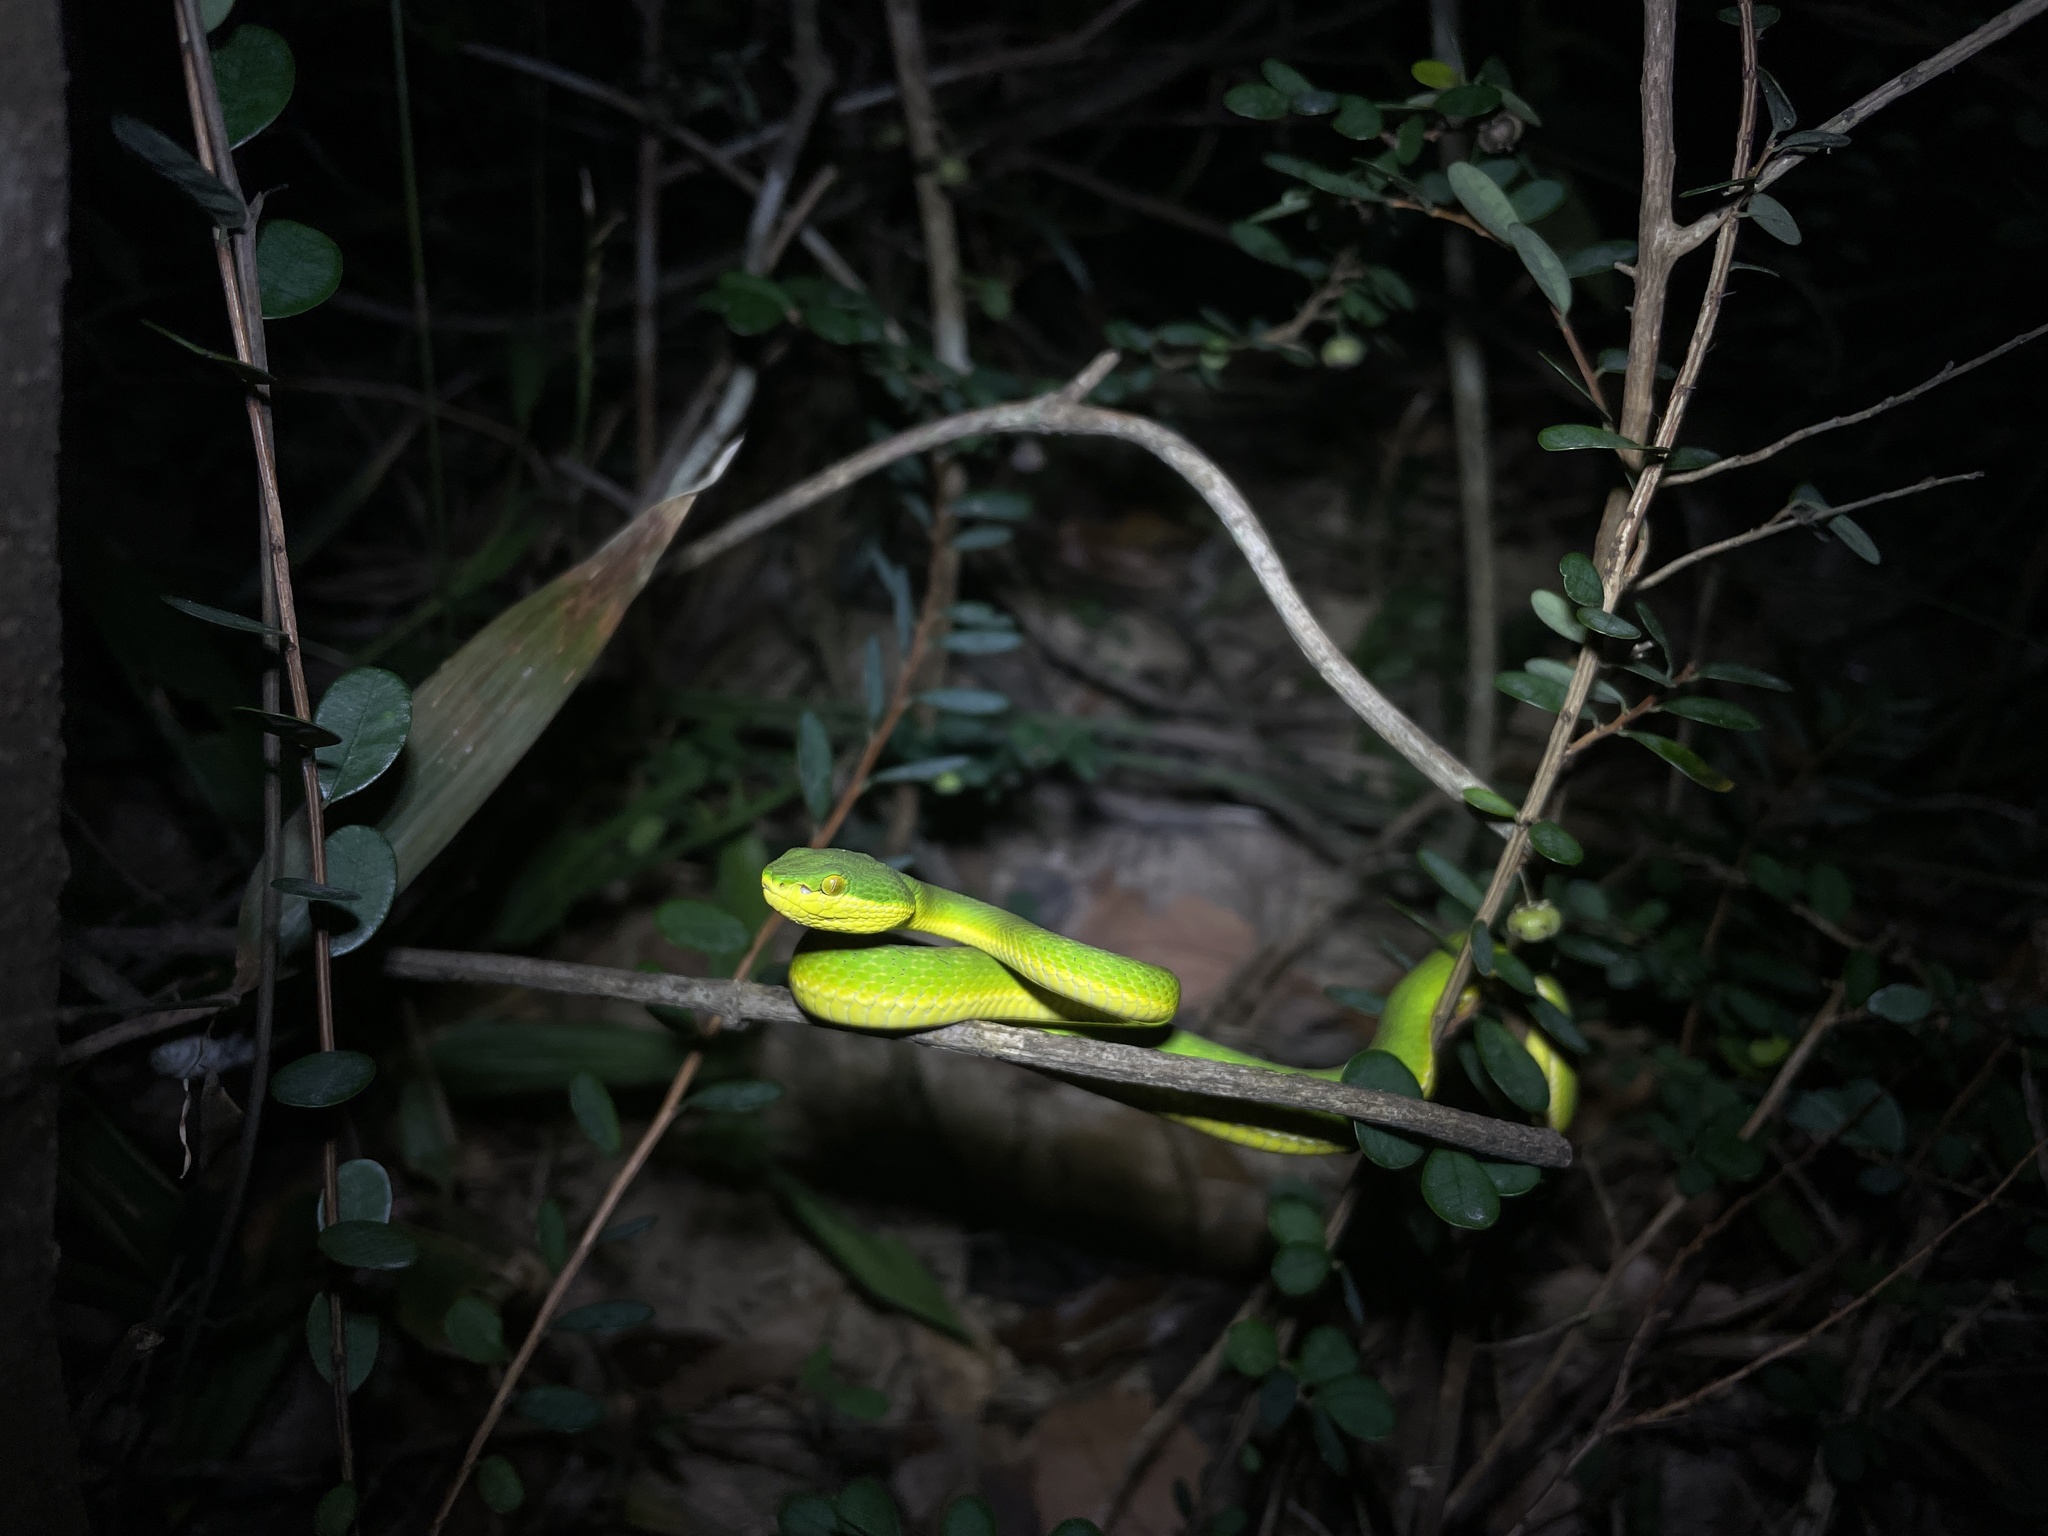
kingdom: Animalia
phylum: Chordata
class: Squamata
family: Viperidae
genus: Trimeresurus
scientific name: Trimeresurus albolabris
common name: White-lipped pitviper
